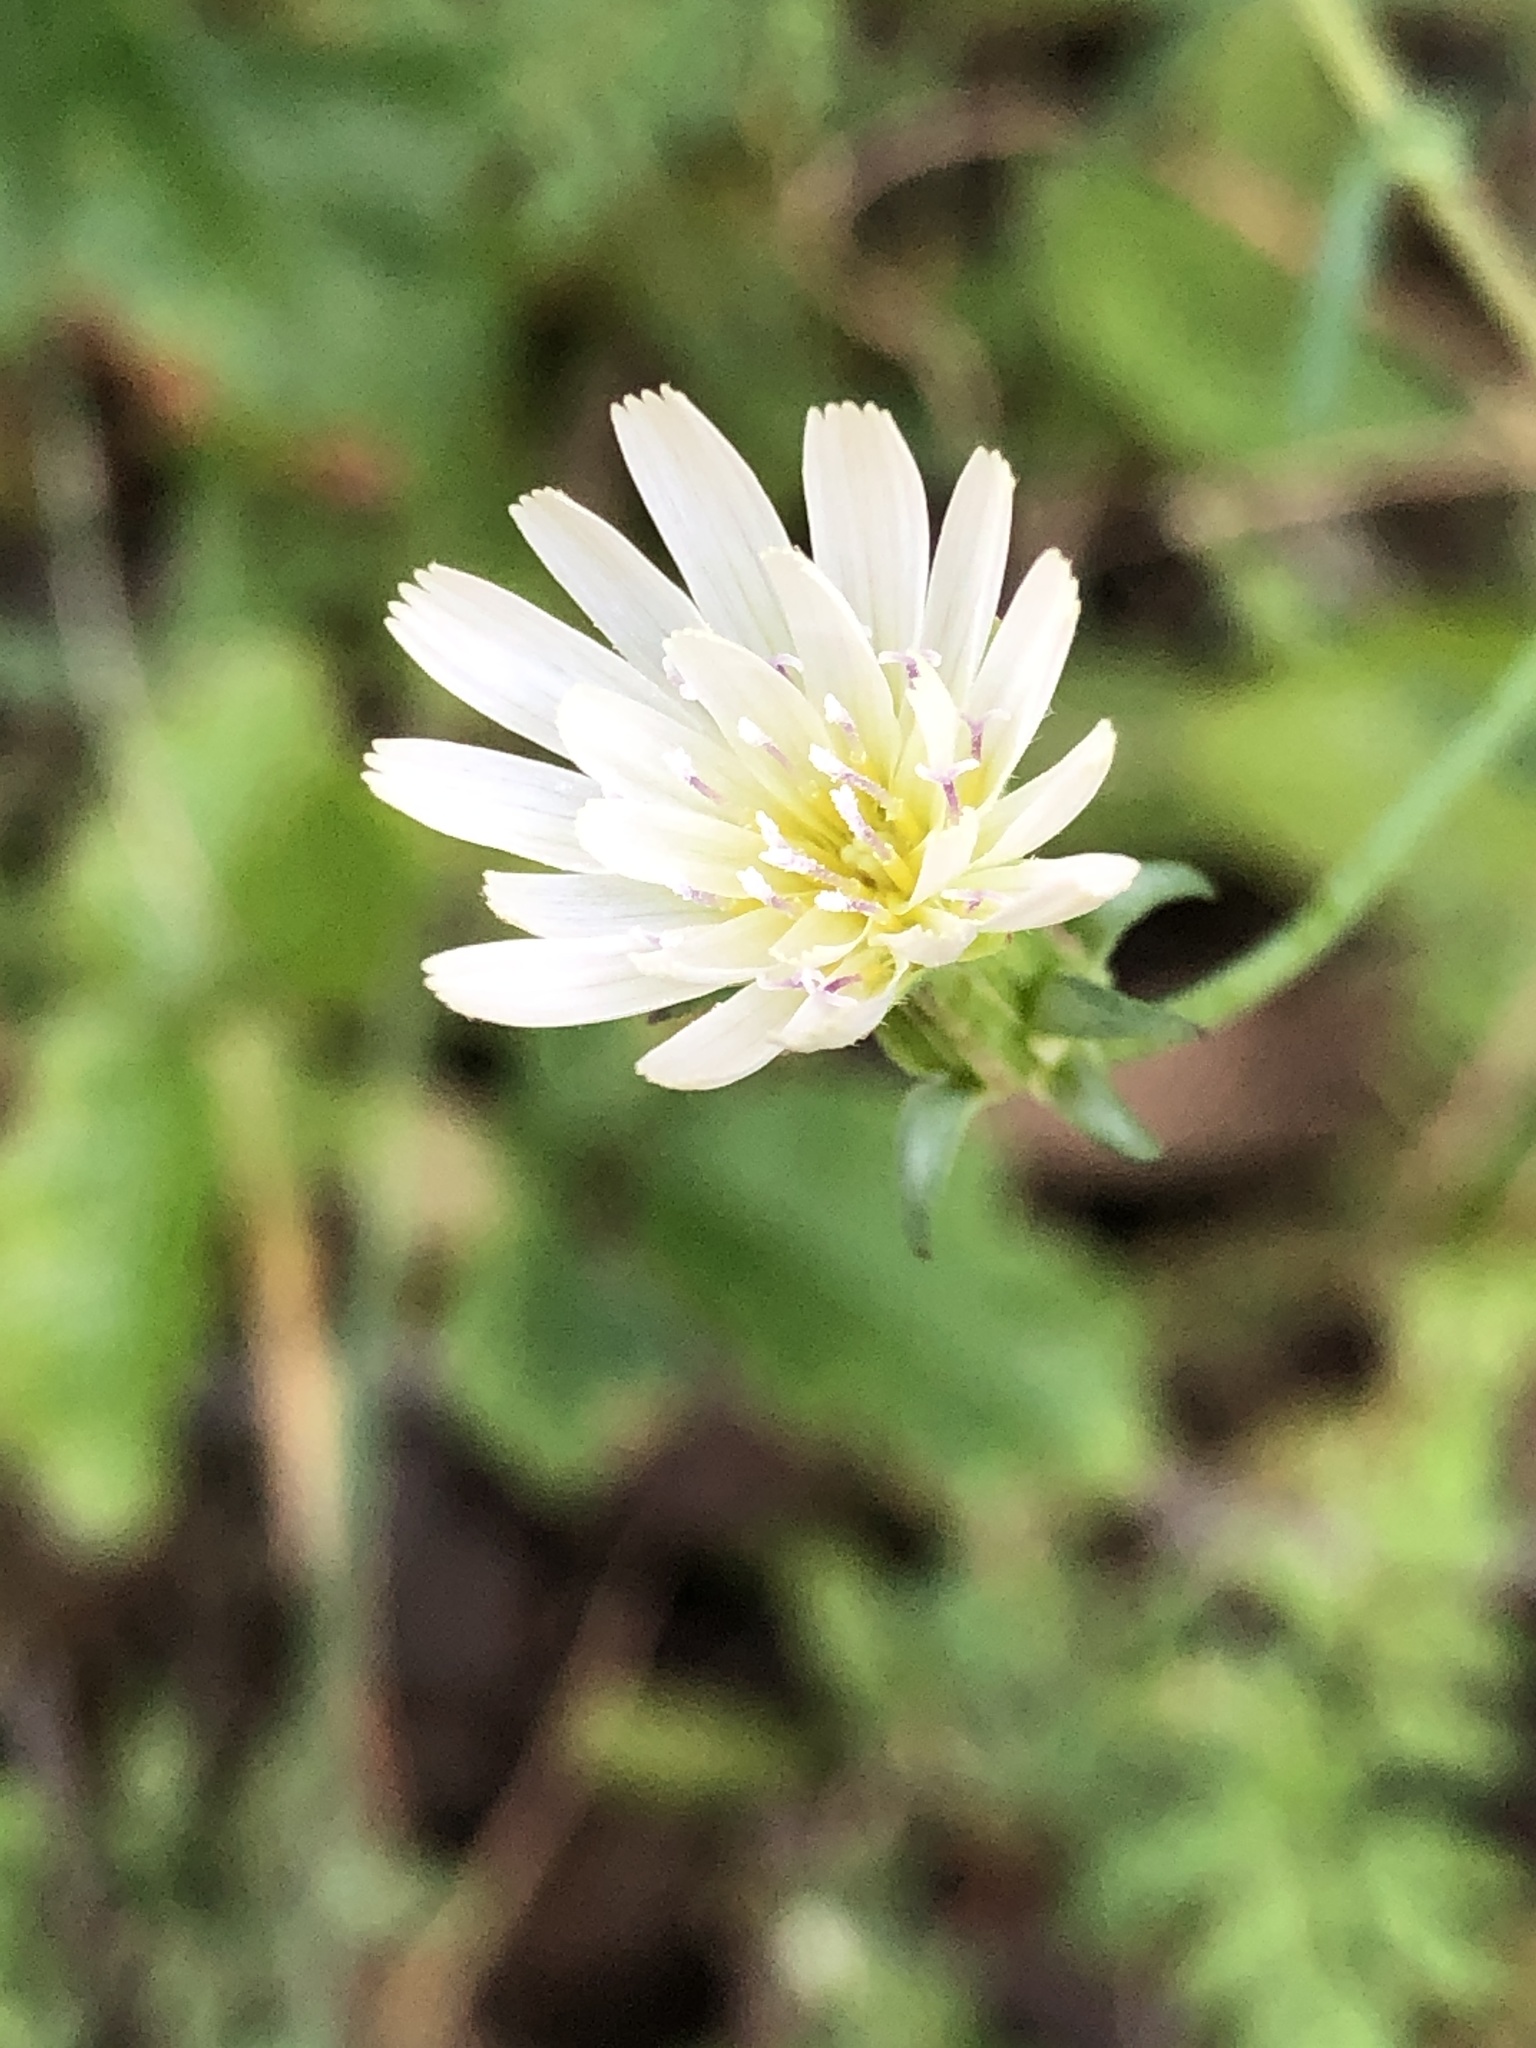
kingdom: Plantae
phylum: Tracheophyta
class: Magnoliopsida
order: Asterales
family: Asteraceae
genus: Rafinesquia
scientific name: Rafinesquia californica
